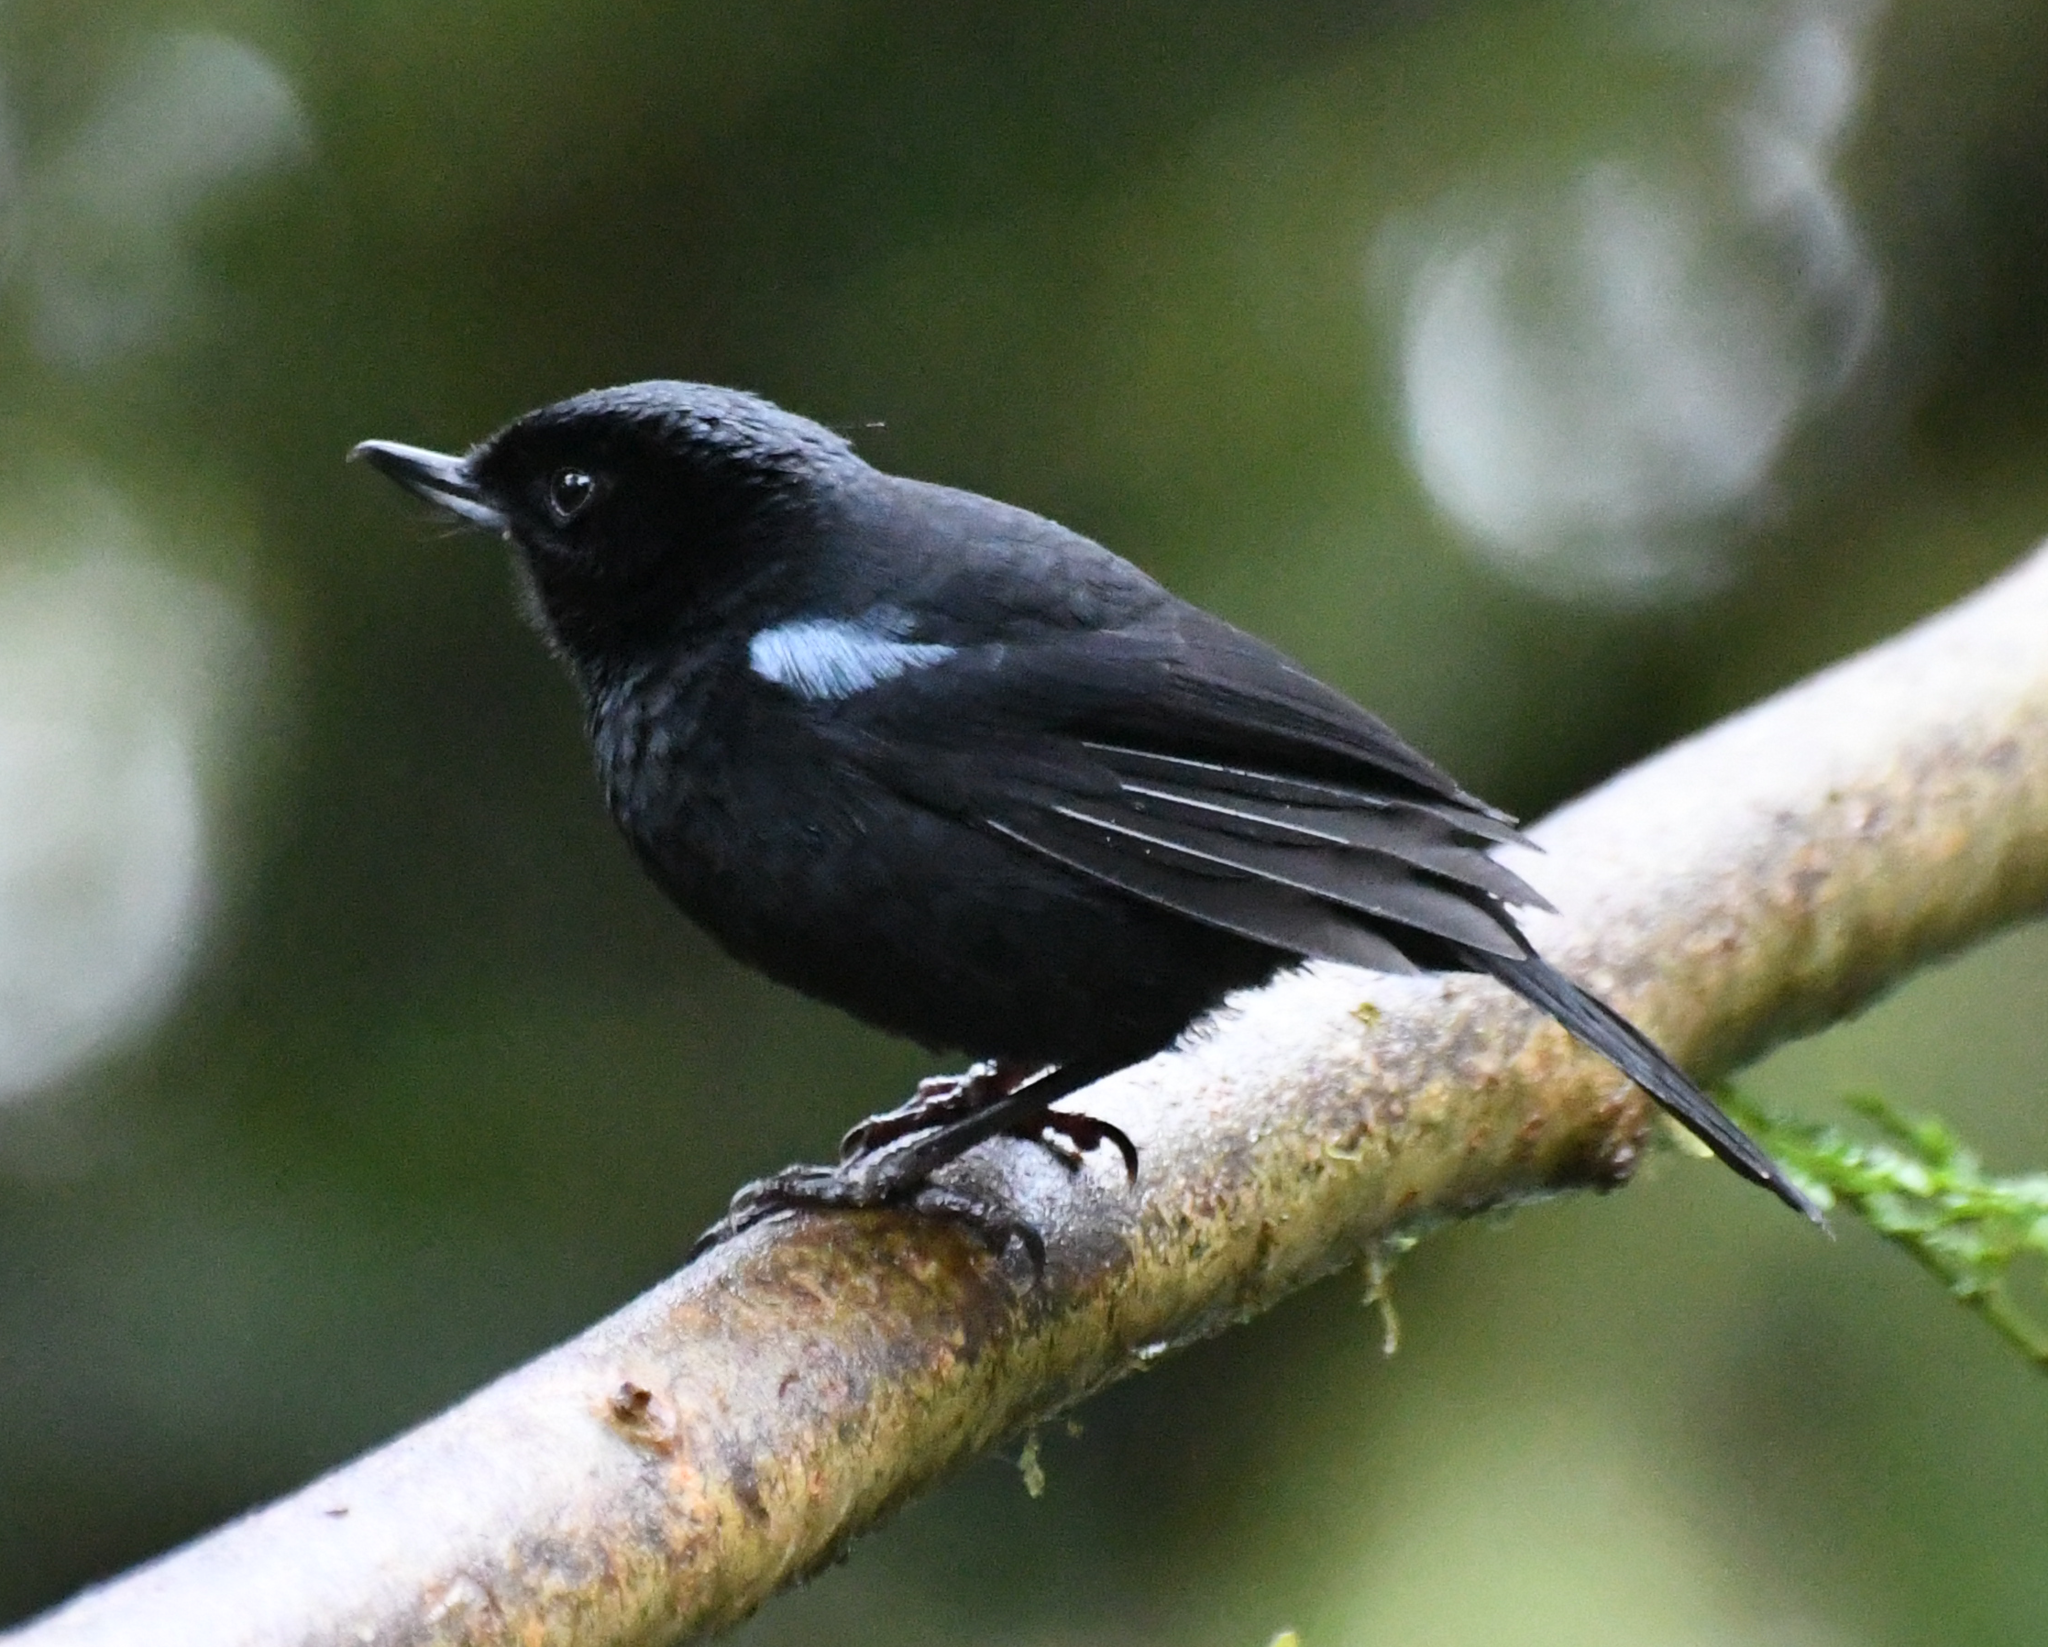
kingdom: Animalia
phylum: Chordata
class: Aves
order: Passeriformes
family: Thraupidae
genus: Diglossa
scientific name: Diglossa lafresnayii
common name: Glossy flowerpiercer
